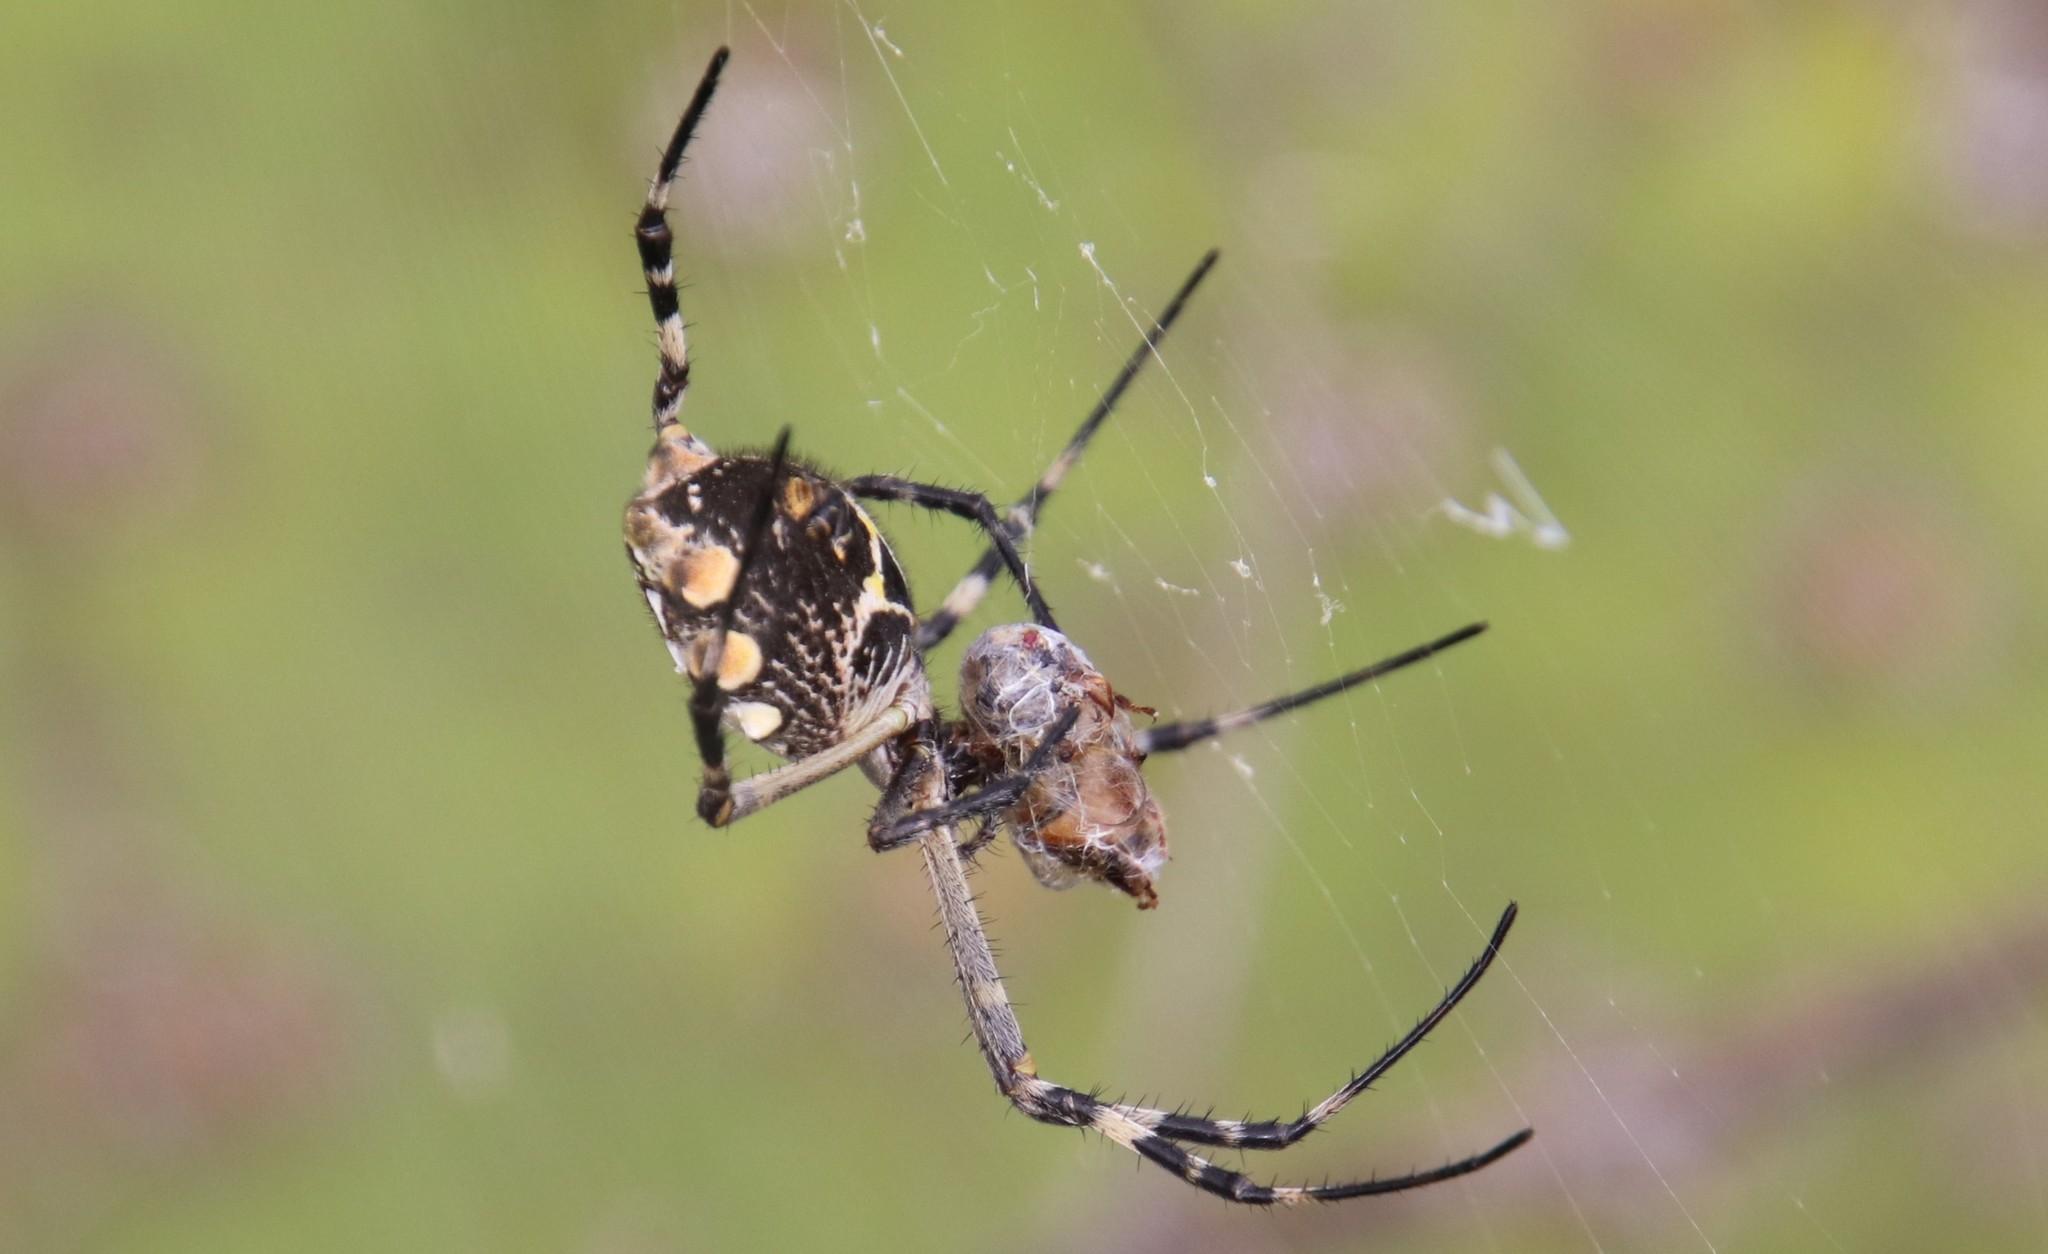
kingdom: Animalia
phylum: Arthropoda
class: Arachnida
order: Araneae
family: Araneidae
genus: Argiope
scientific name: Argiope argentata
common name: Orb weavers
